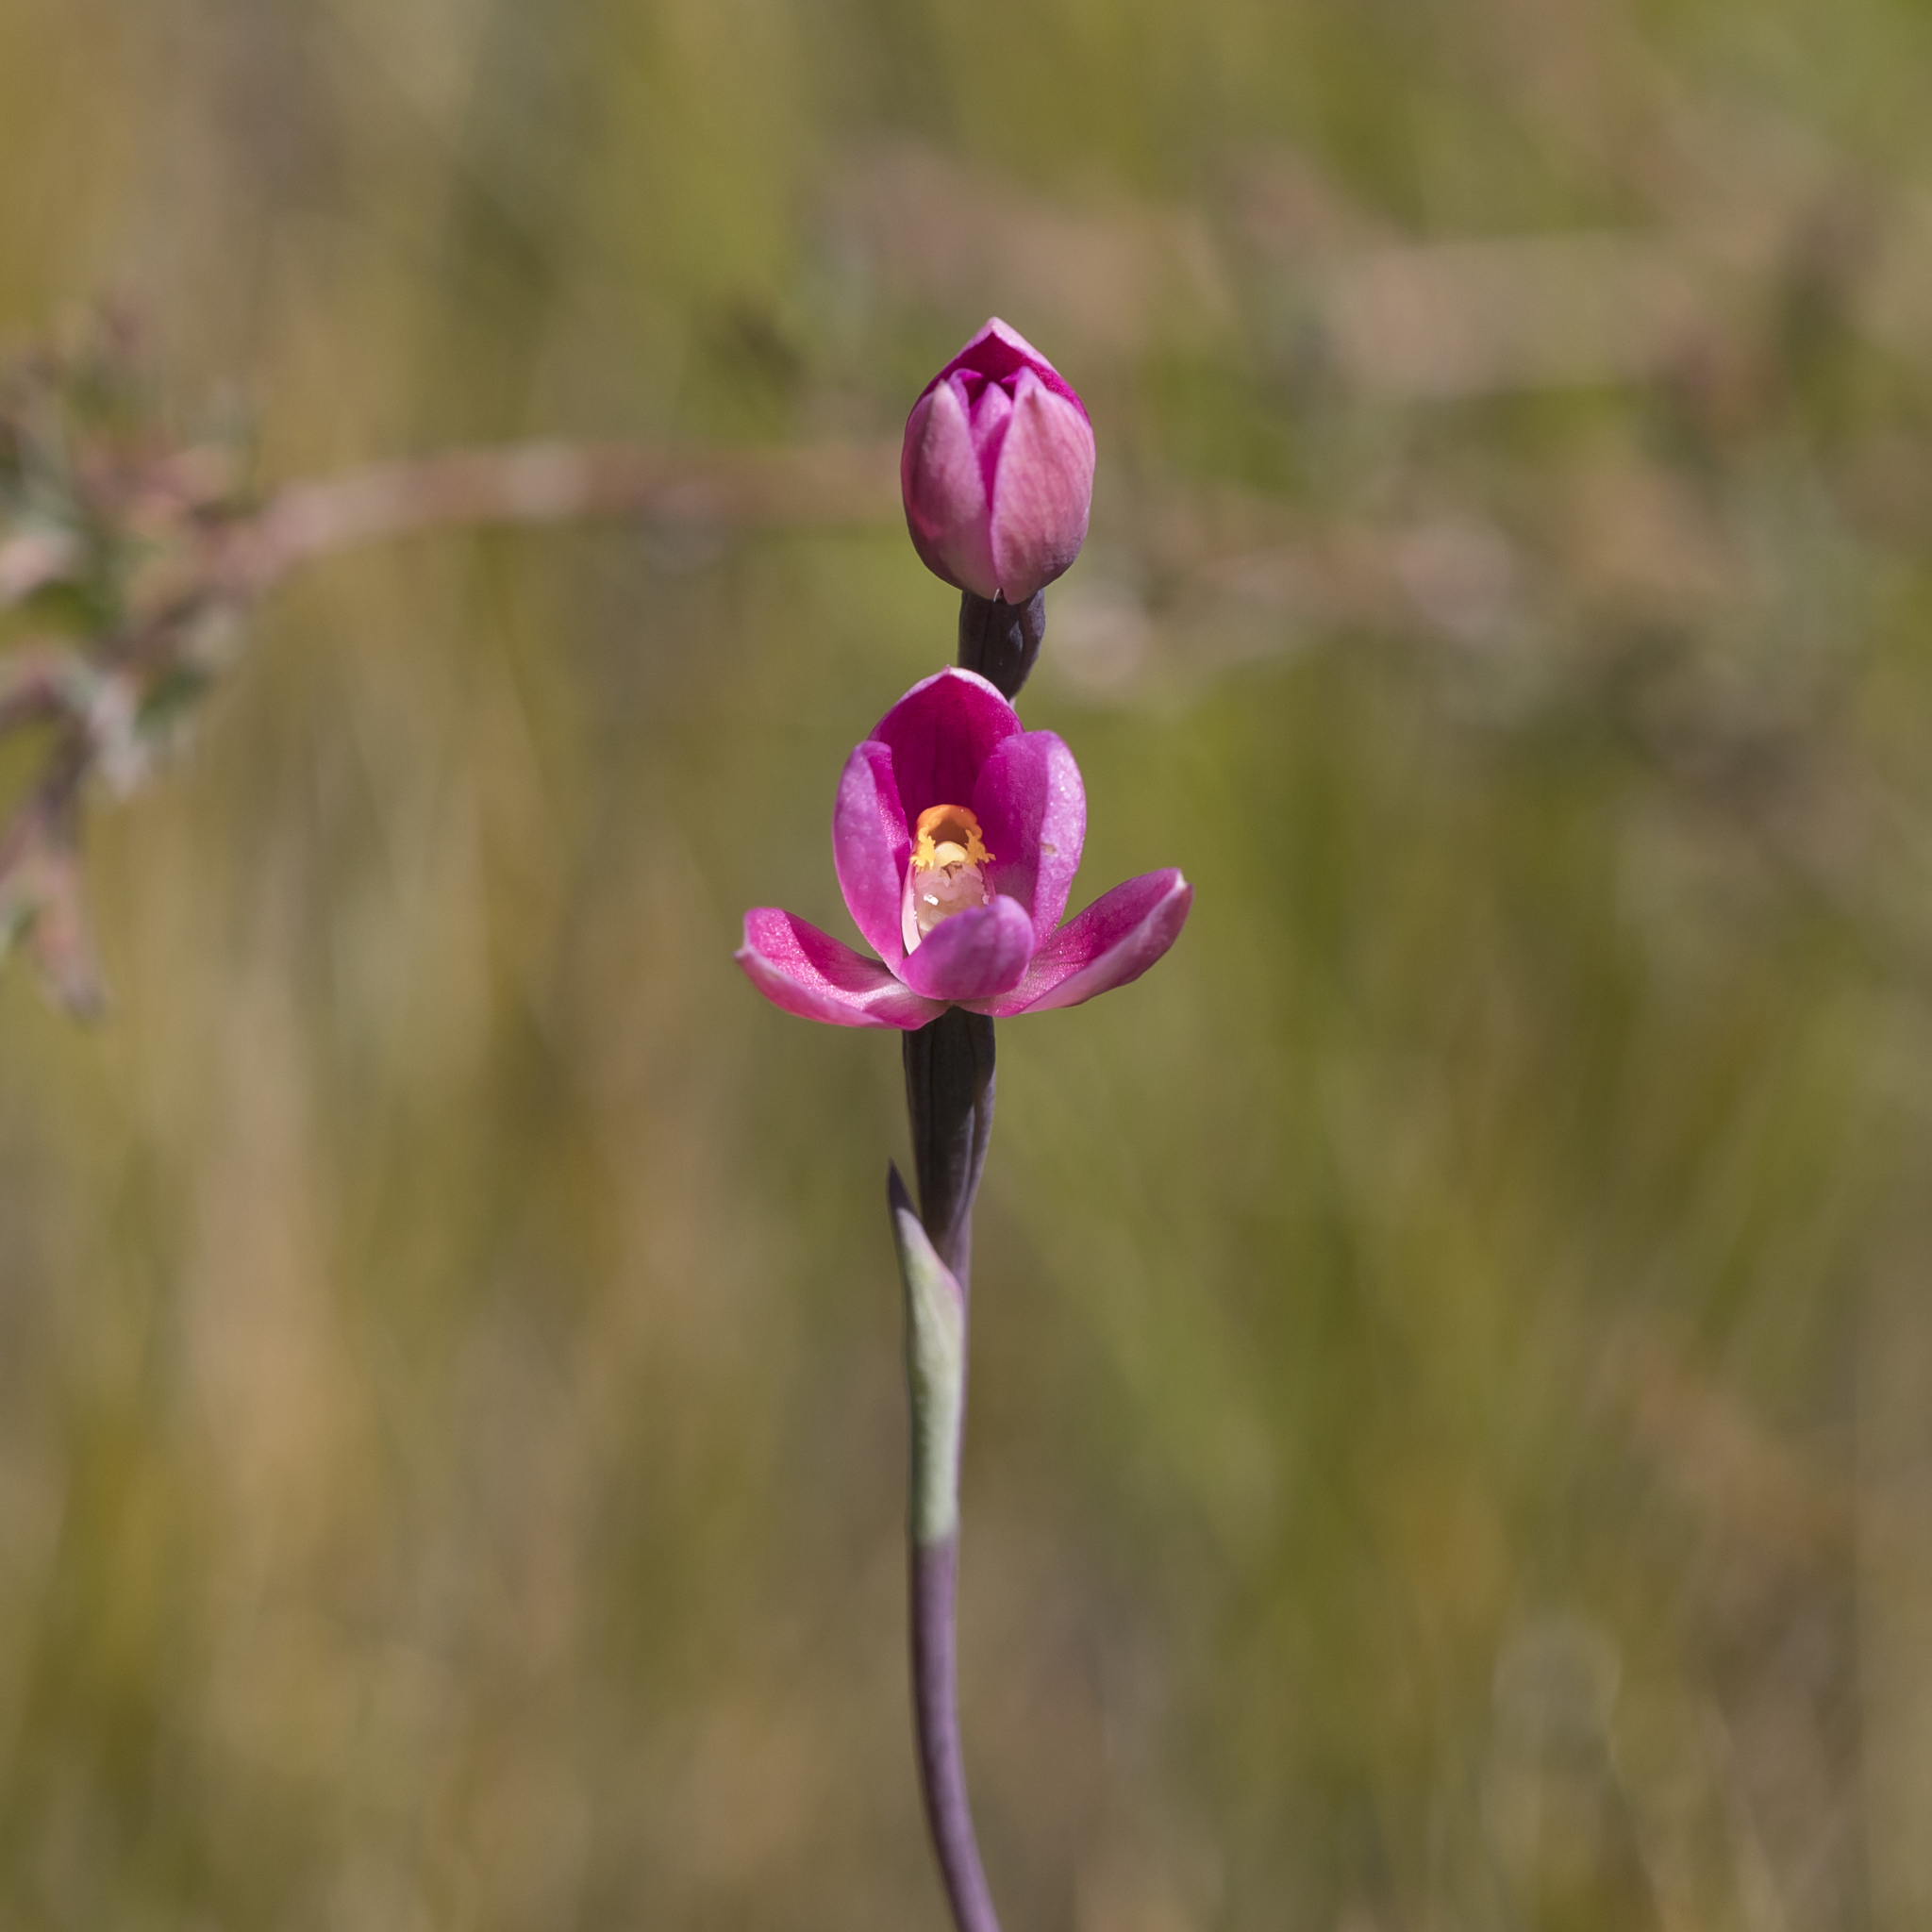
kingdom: Plantae
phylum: Tracheophyta
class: Liliopsida
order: Asparagales
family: Orchidaceae
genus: Thelymitra
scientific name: Thelymitra rubra
